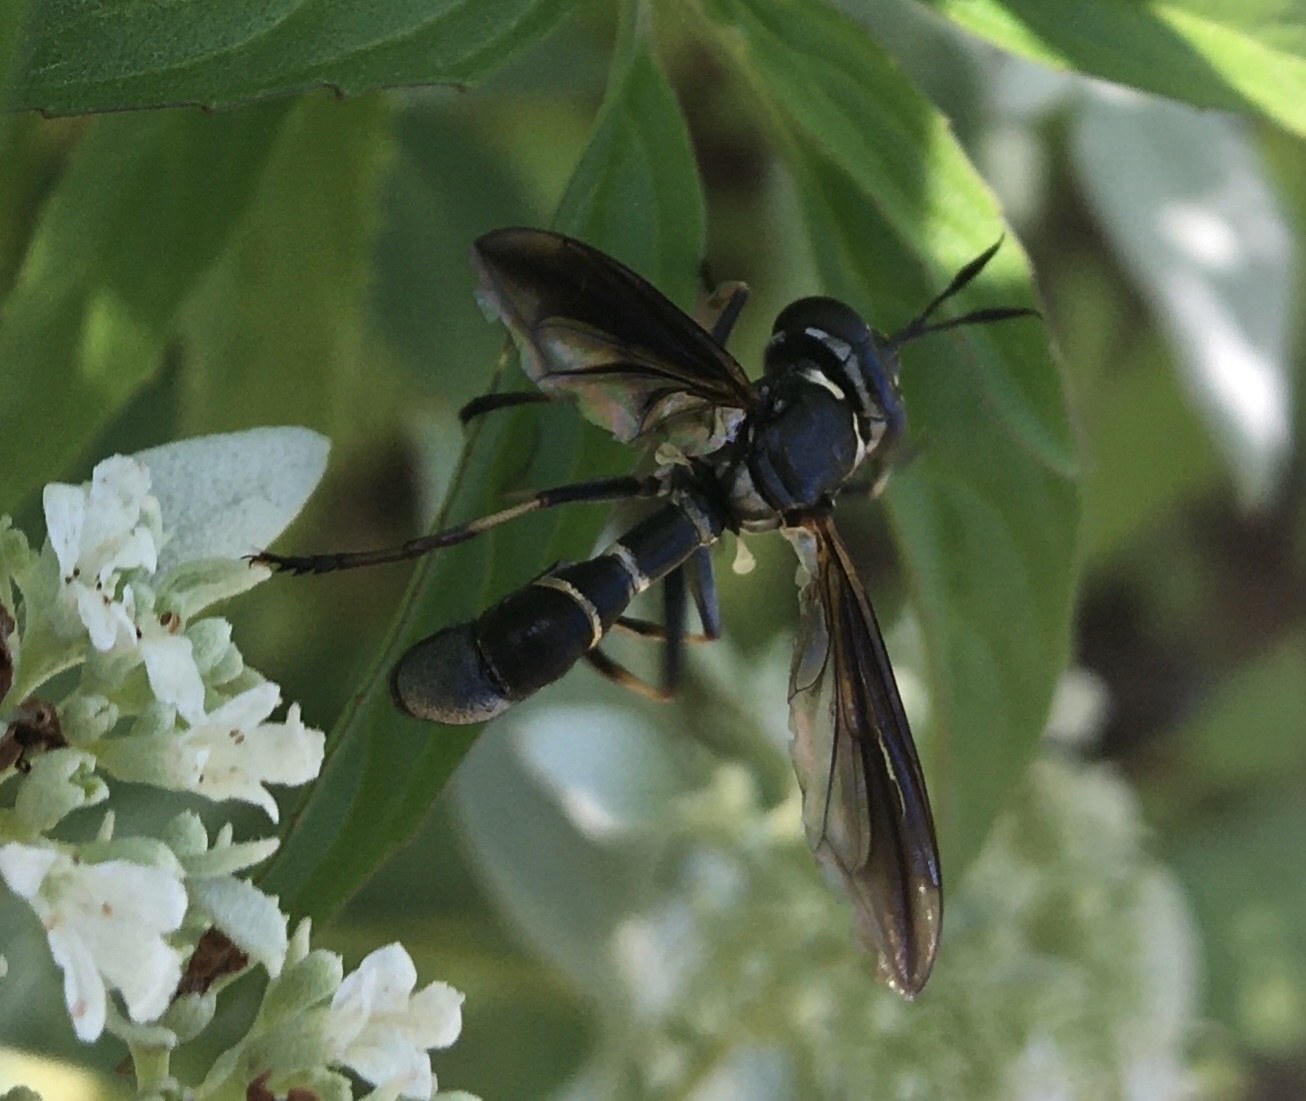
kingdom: Animalia
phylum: Arthropoda
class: Insecta
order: Diptera
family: Conopidae
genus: Physocephala
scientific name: Physocephala marginata
